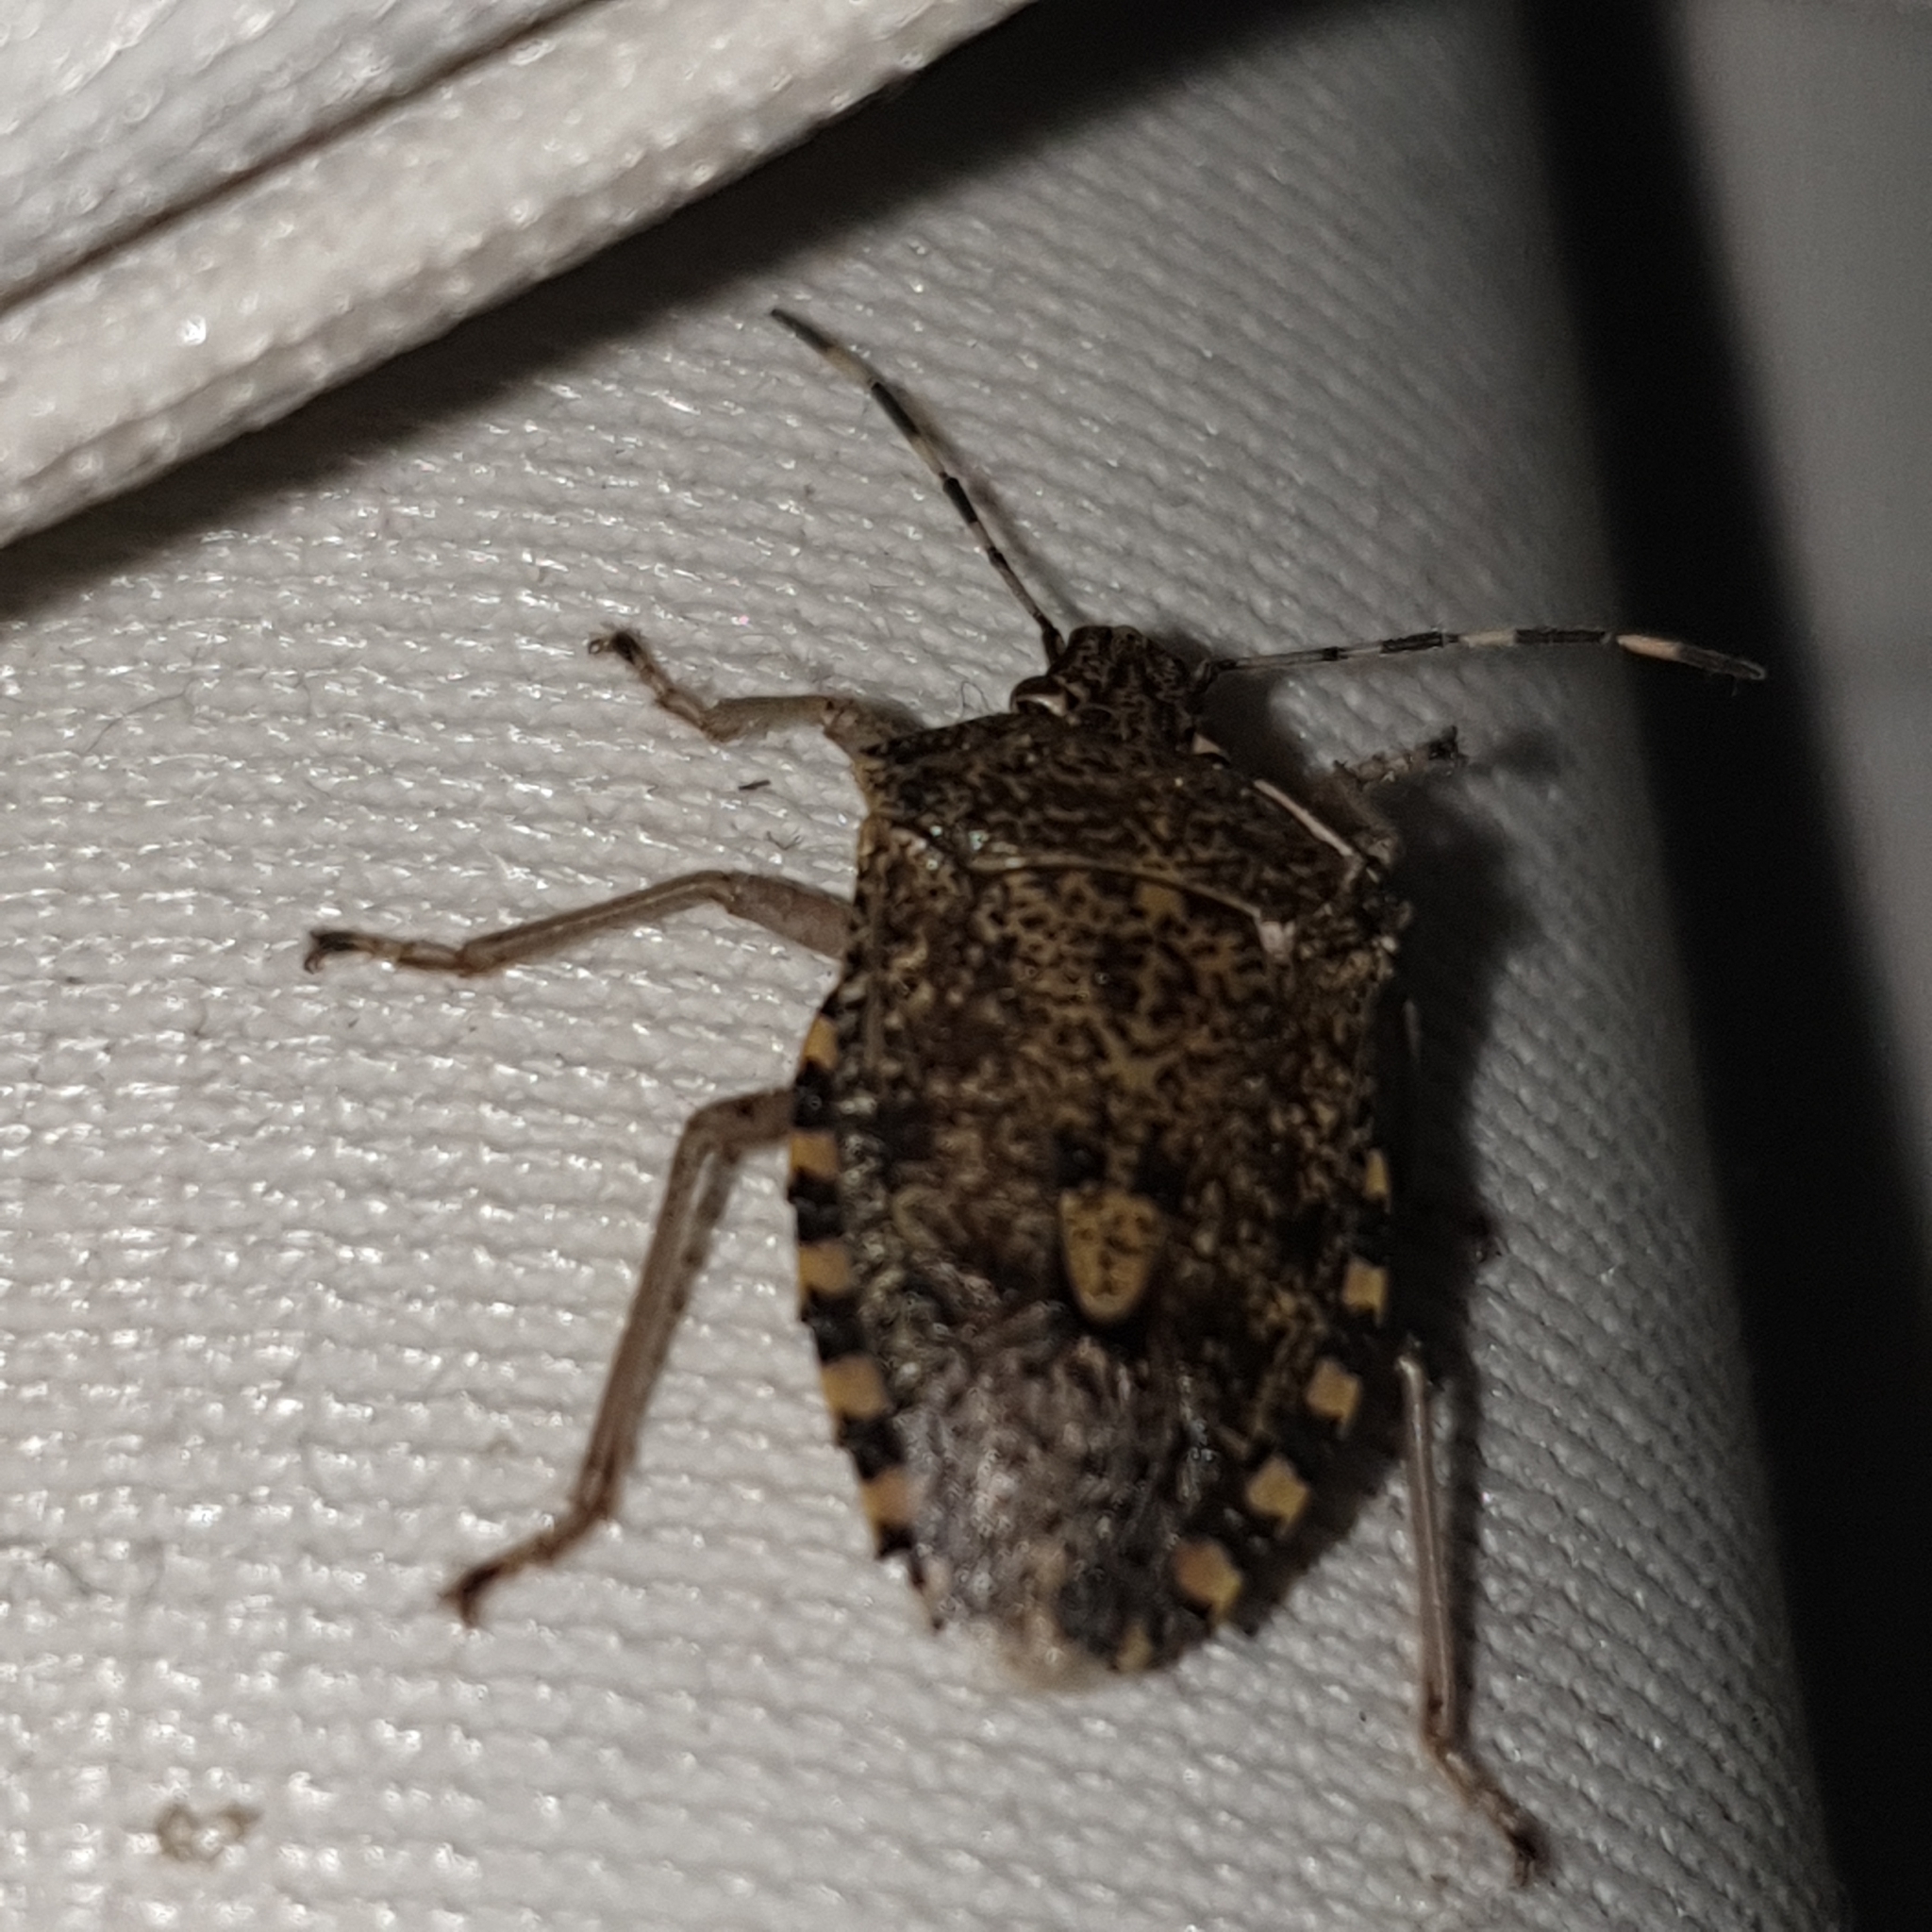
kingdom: Animalia
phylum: Arthropoda
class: Insecta
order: Hemiptera
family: Pentatomidae
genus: Rhaphigaster
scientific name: Rhaphigaster nebulosa
